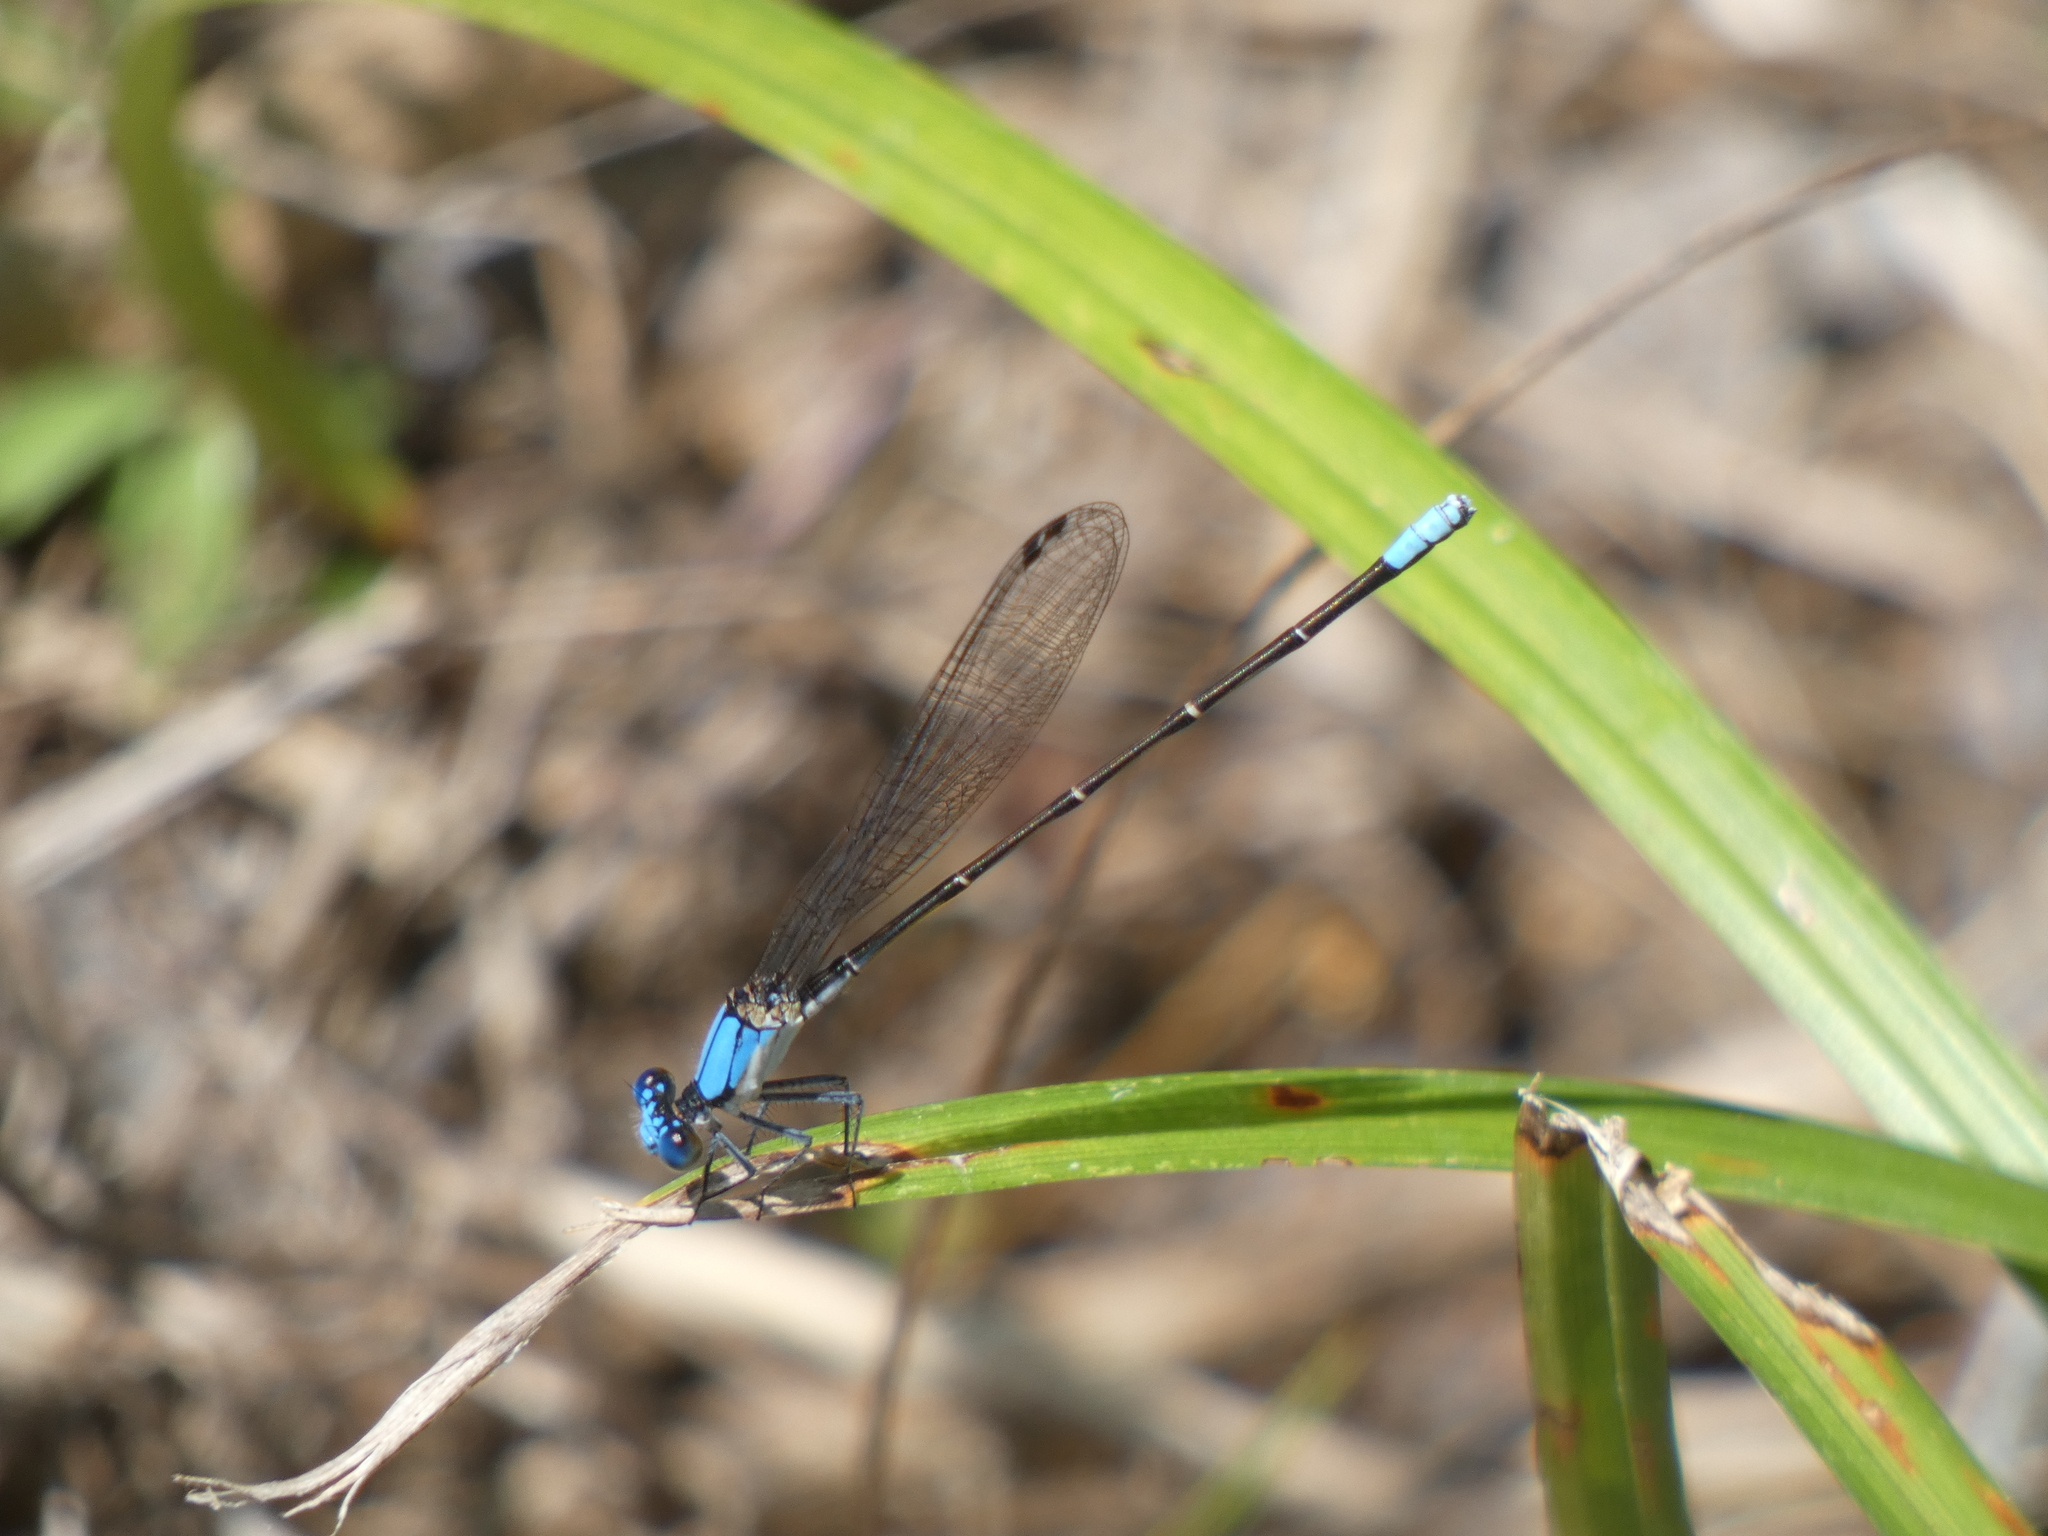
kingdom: Animalia
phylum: Arthropoda
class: Insecta
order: Odonata
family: Coenagrionidae
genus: Argia
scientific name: Argia apicalis
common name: Blue-fronted dancer
